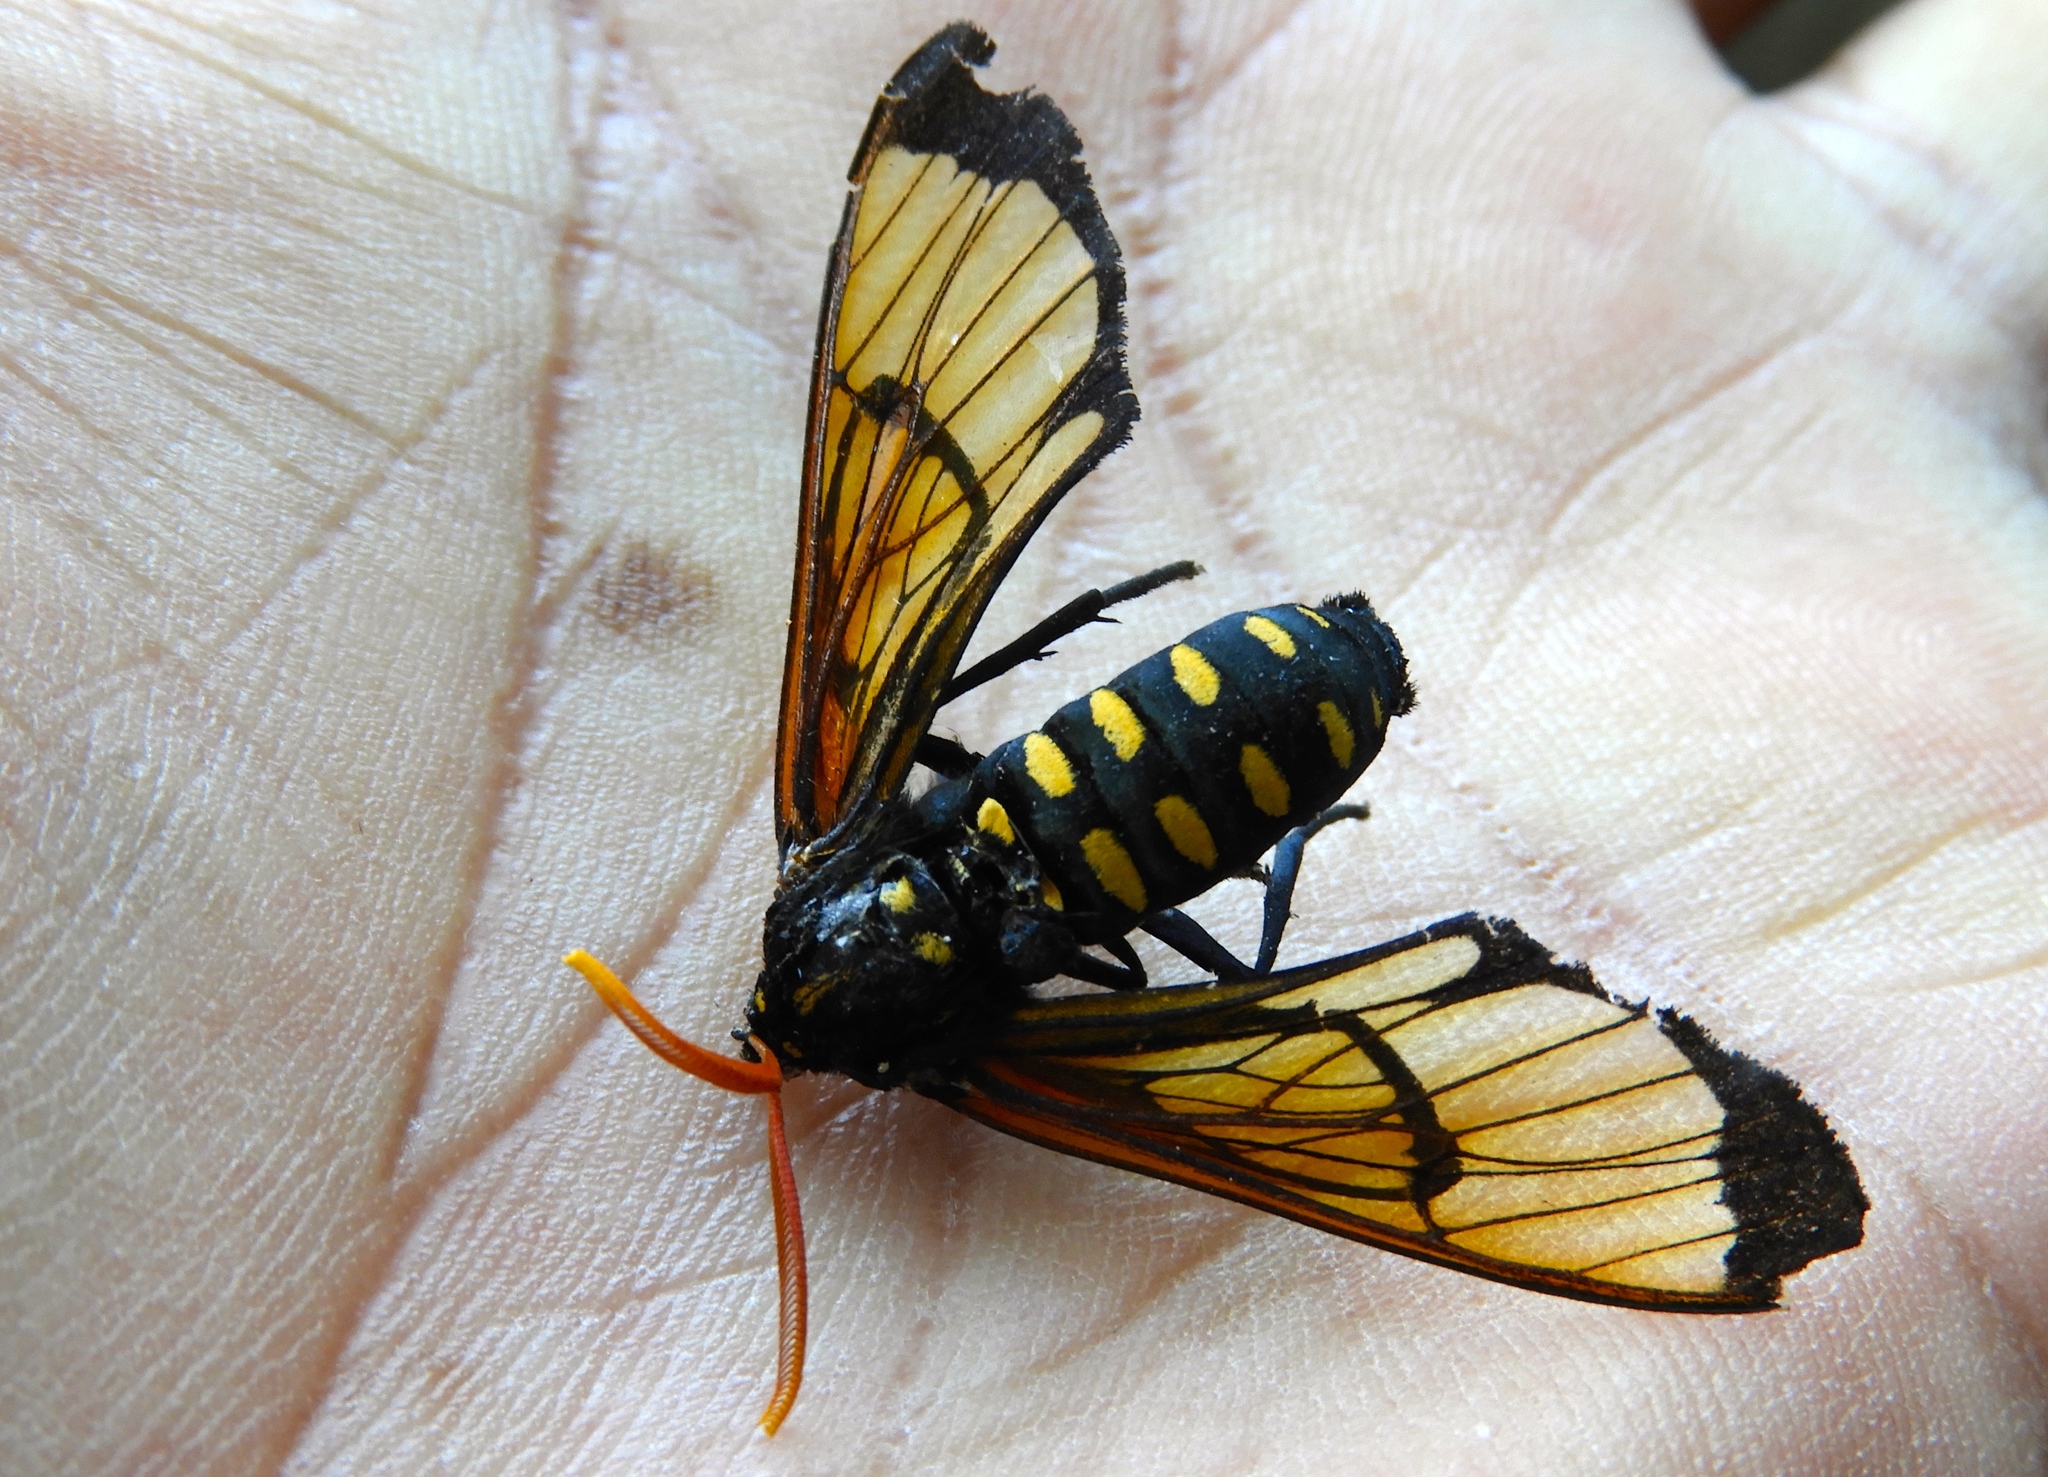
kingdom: Animalia
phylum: Arthropoda
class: Insecta
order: Lepidoptera
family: Erebidae
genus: Isanthrene
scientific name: Isanthrene perboscii
